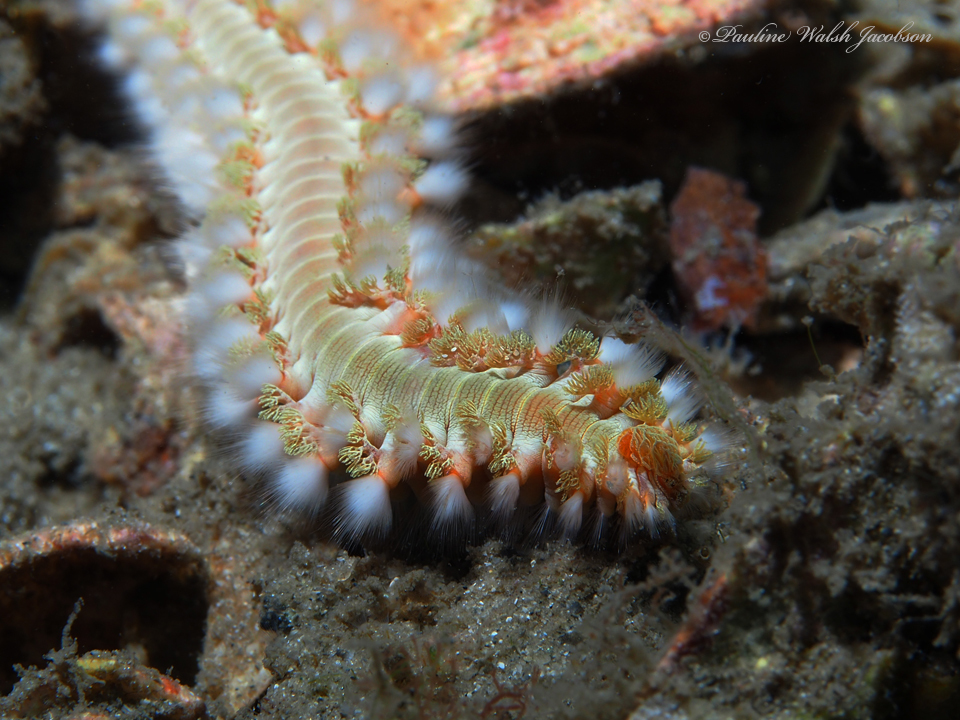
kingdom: Animalia
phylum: Annelida
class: Polychaeta
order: Amphinomida
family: Amphinomidae
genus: Hermodice
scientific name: Hermodice carunculata
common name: Bearded fireworm
